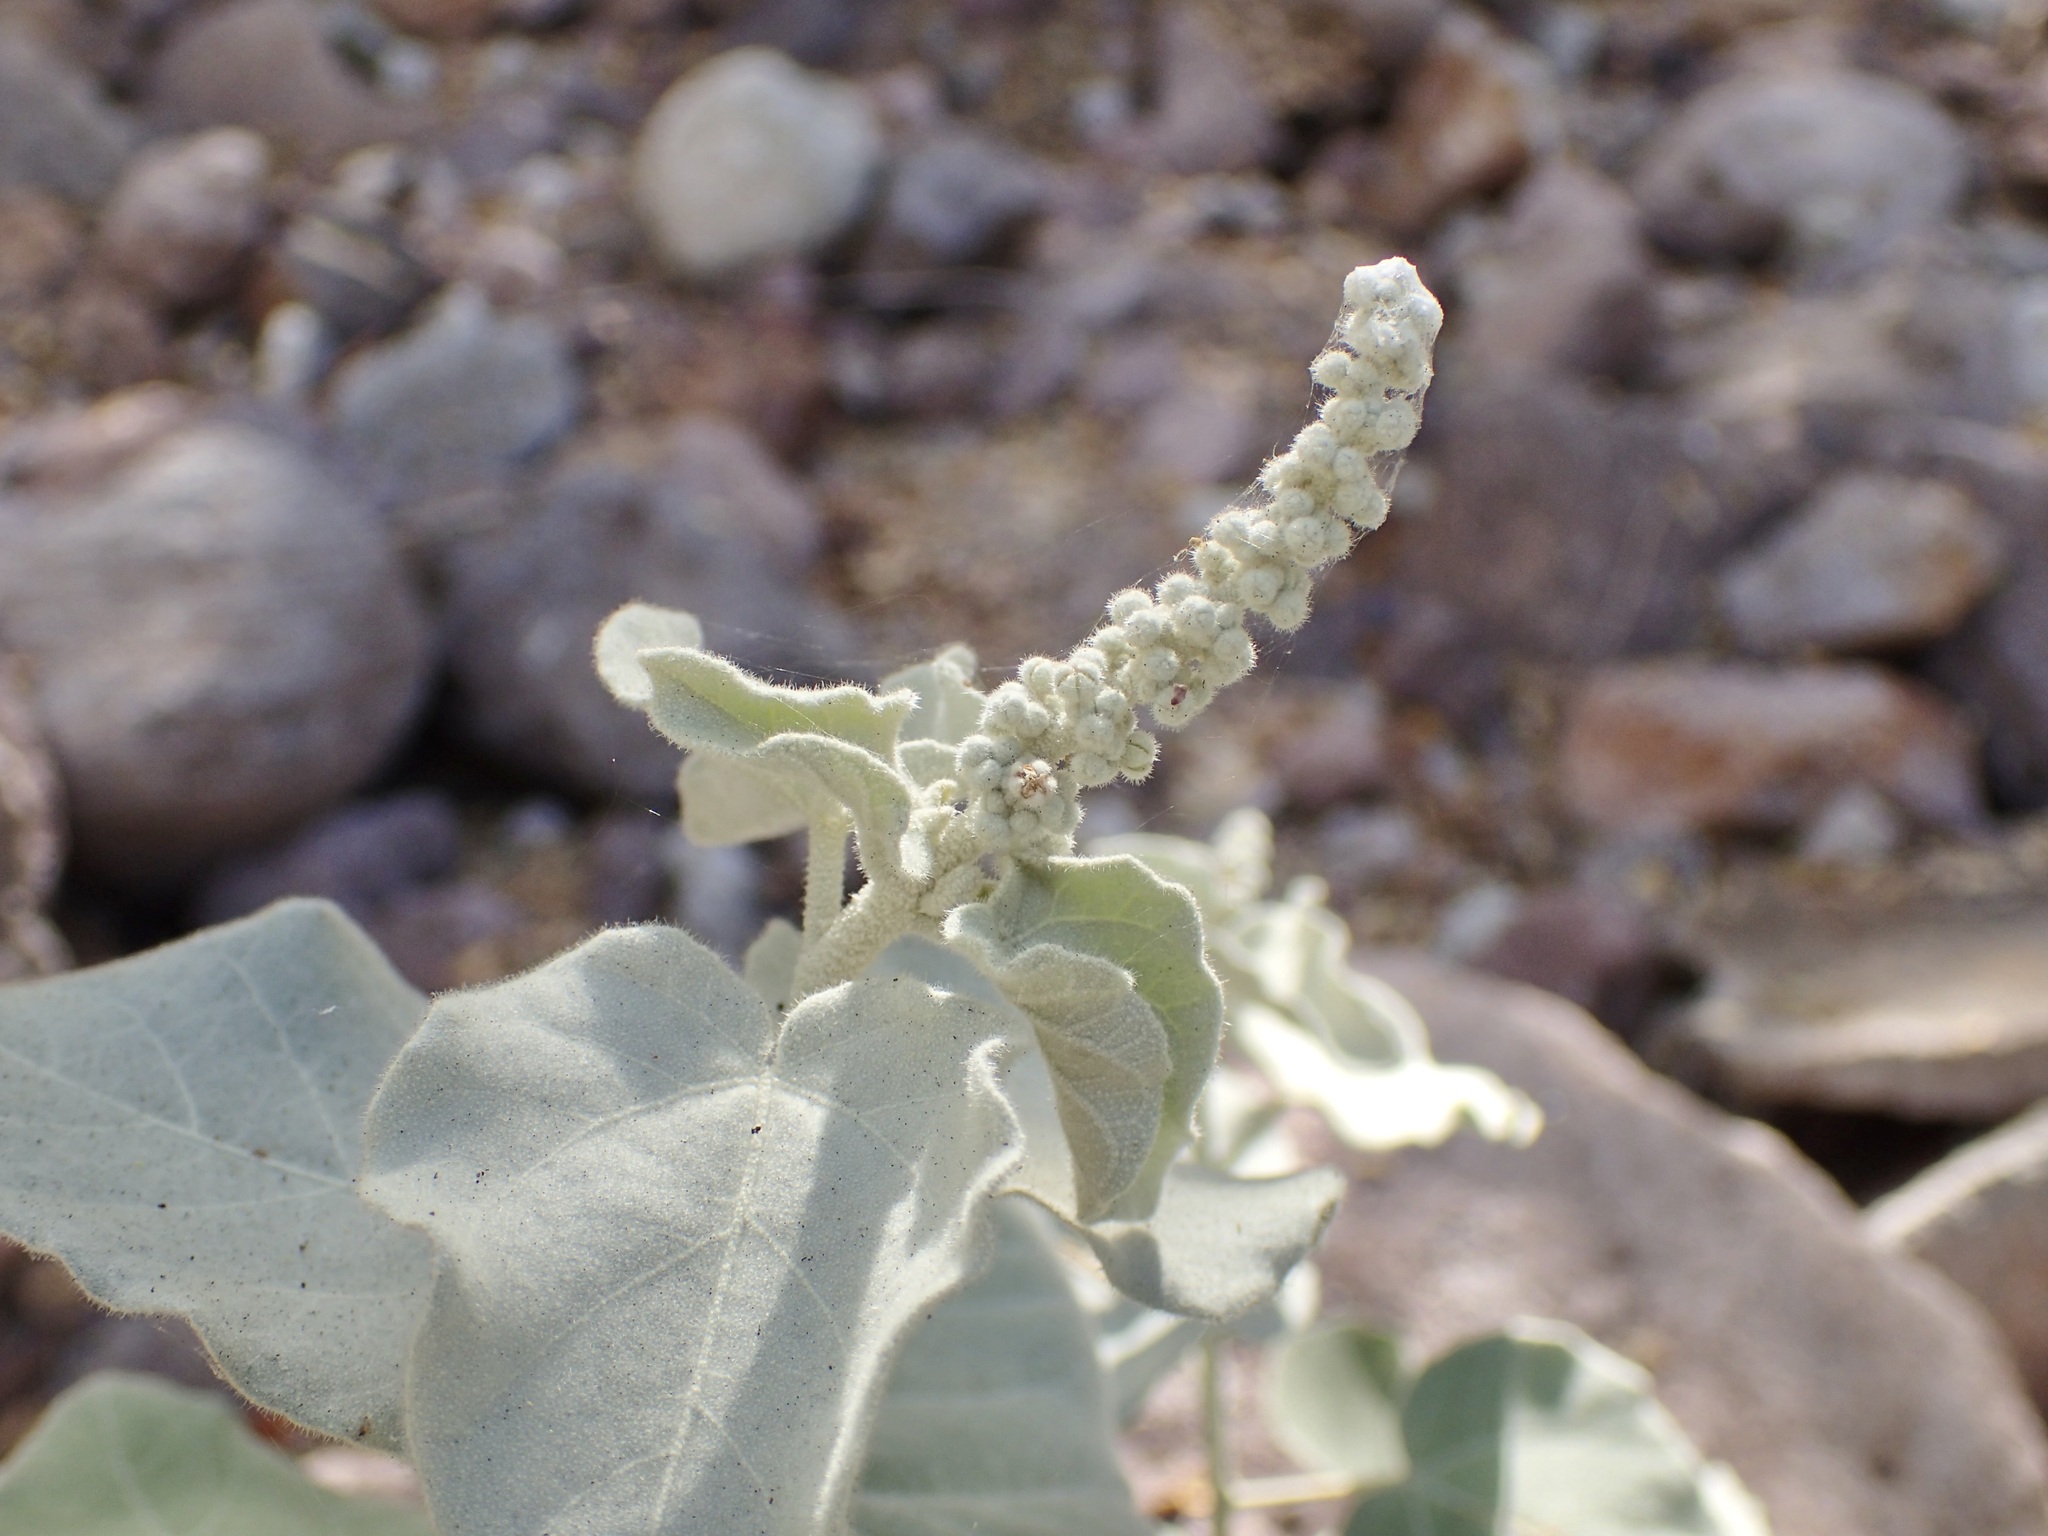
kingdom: Plantae
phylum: Tracheophyta
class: Magnoliopsida
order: Malpighiales
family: Euphorbiaceae
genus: Croton
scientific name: Croton magdalenae
